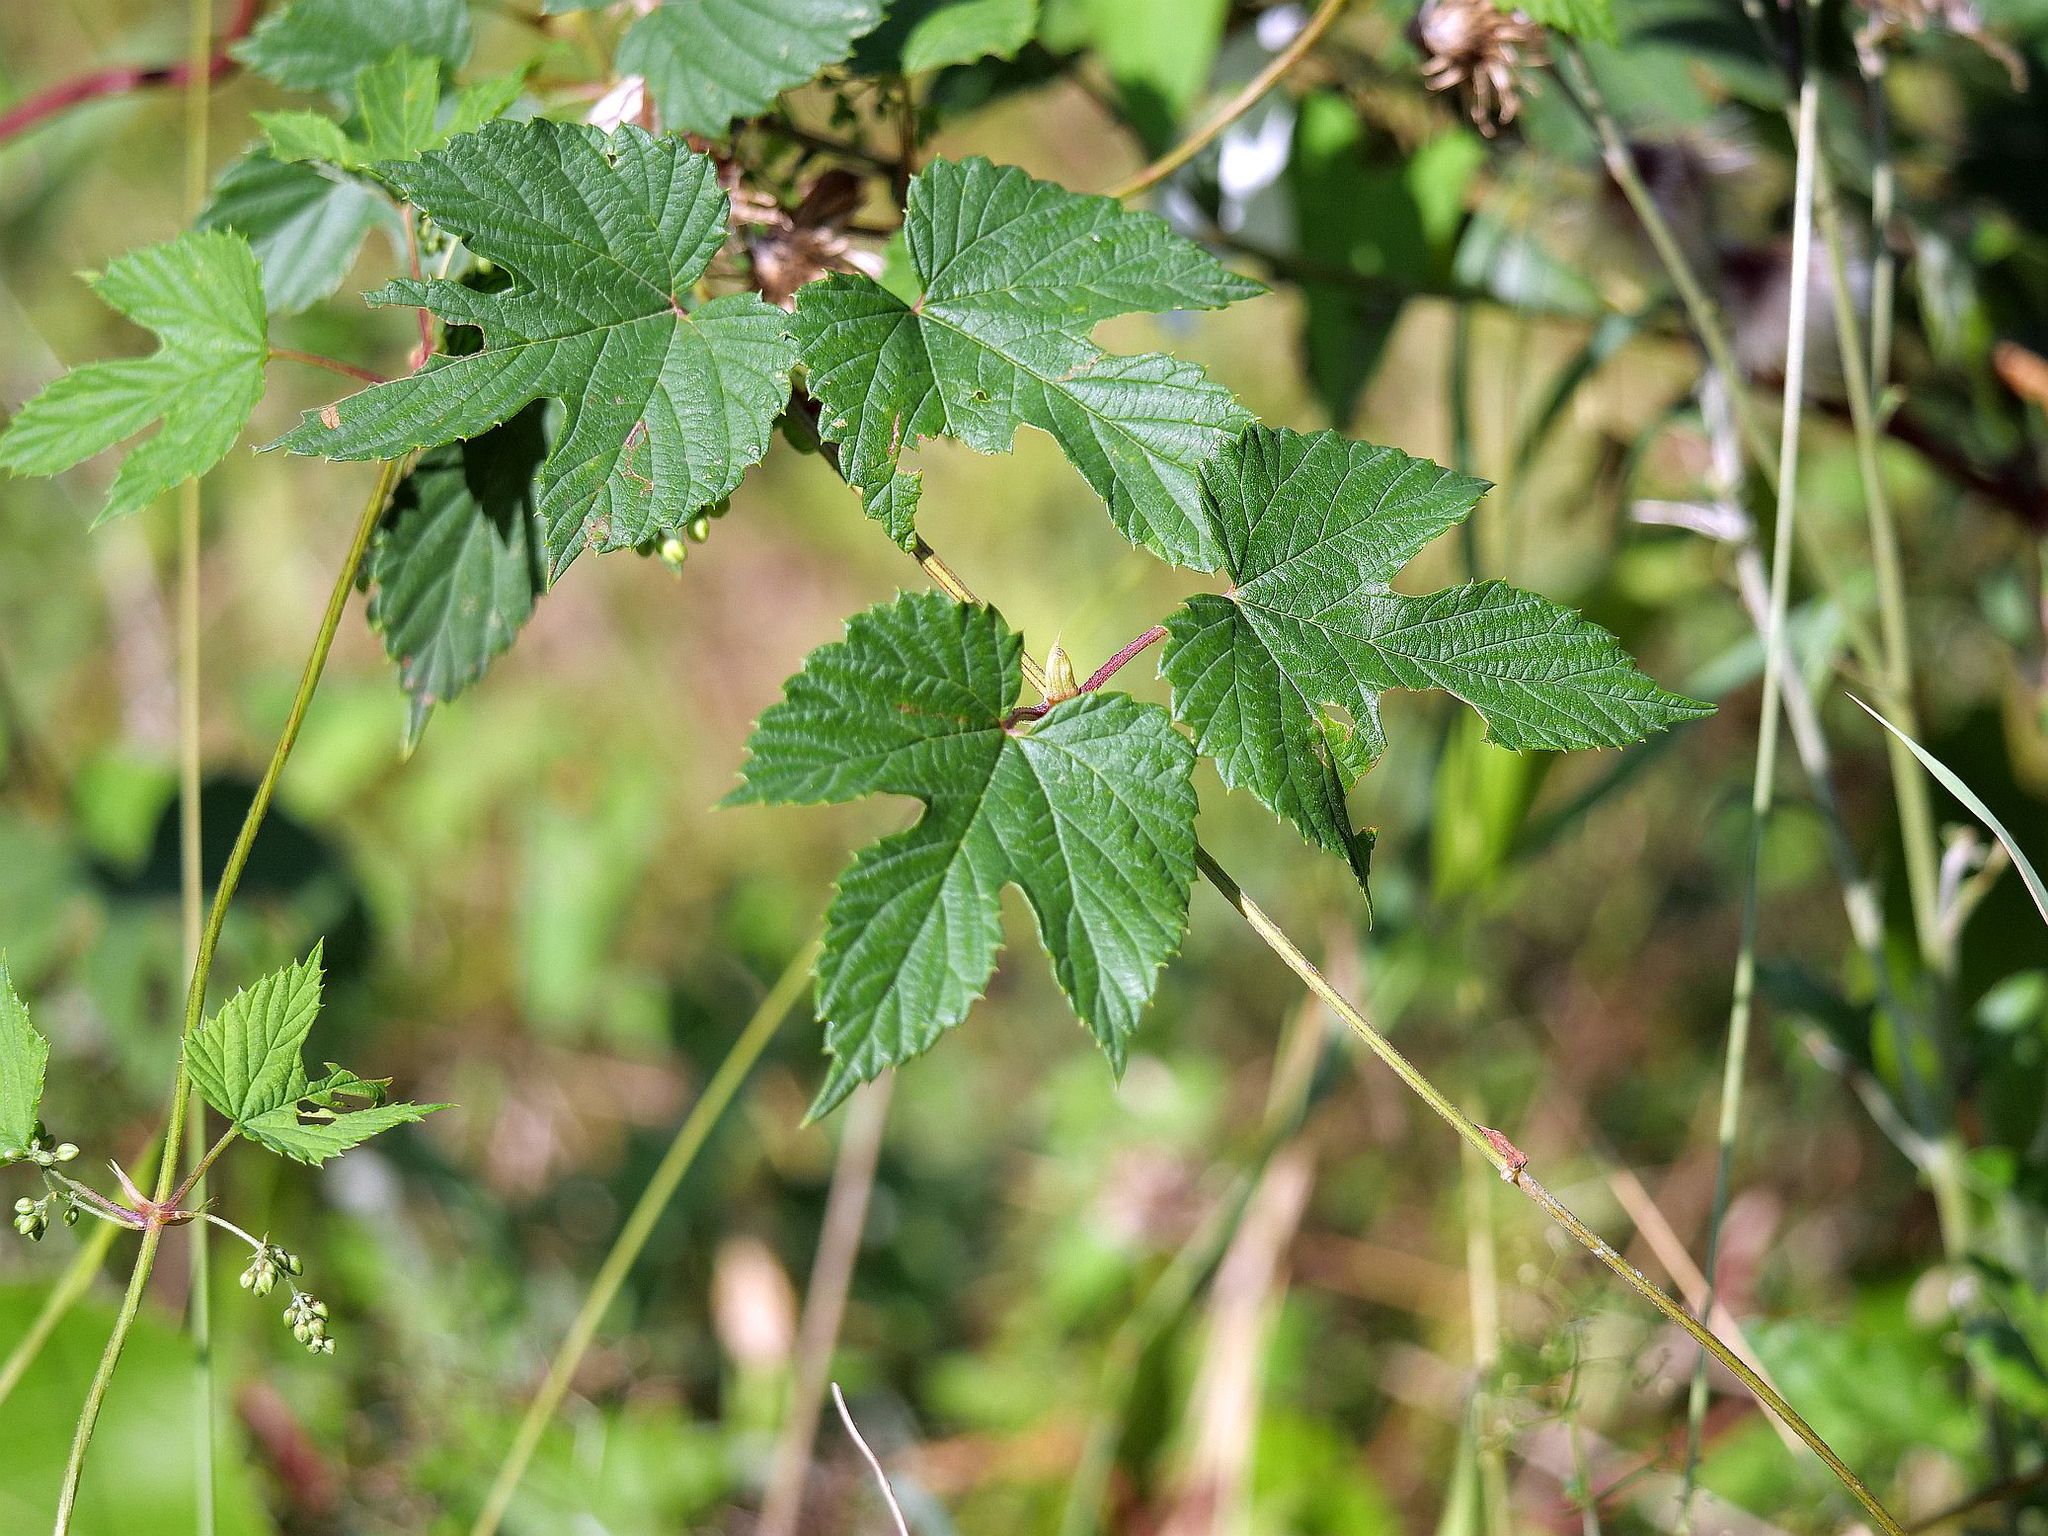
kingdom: Plantae
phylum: Tracheophyta
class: Magnoliopsida
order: Rosales
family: Cannabaceae
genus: Humulus
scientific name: Humulus lupulus
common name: Hop
